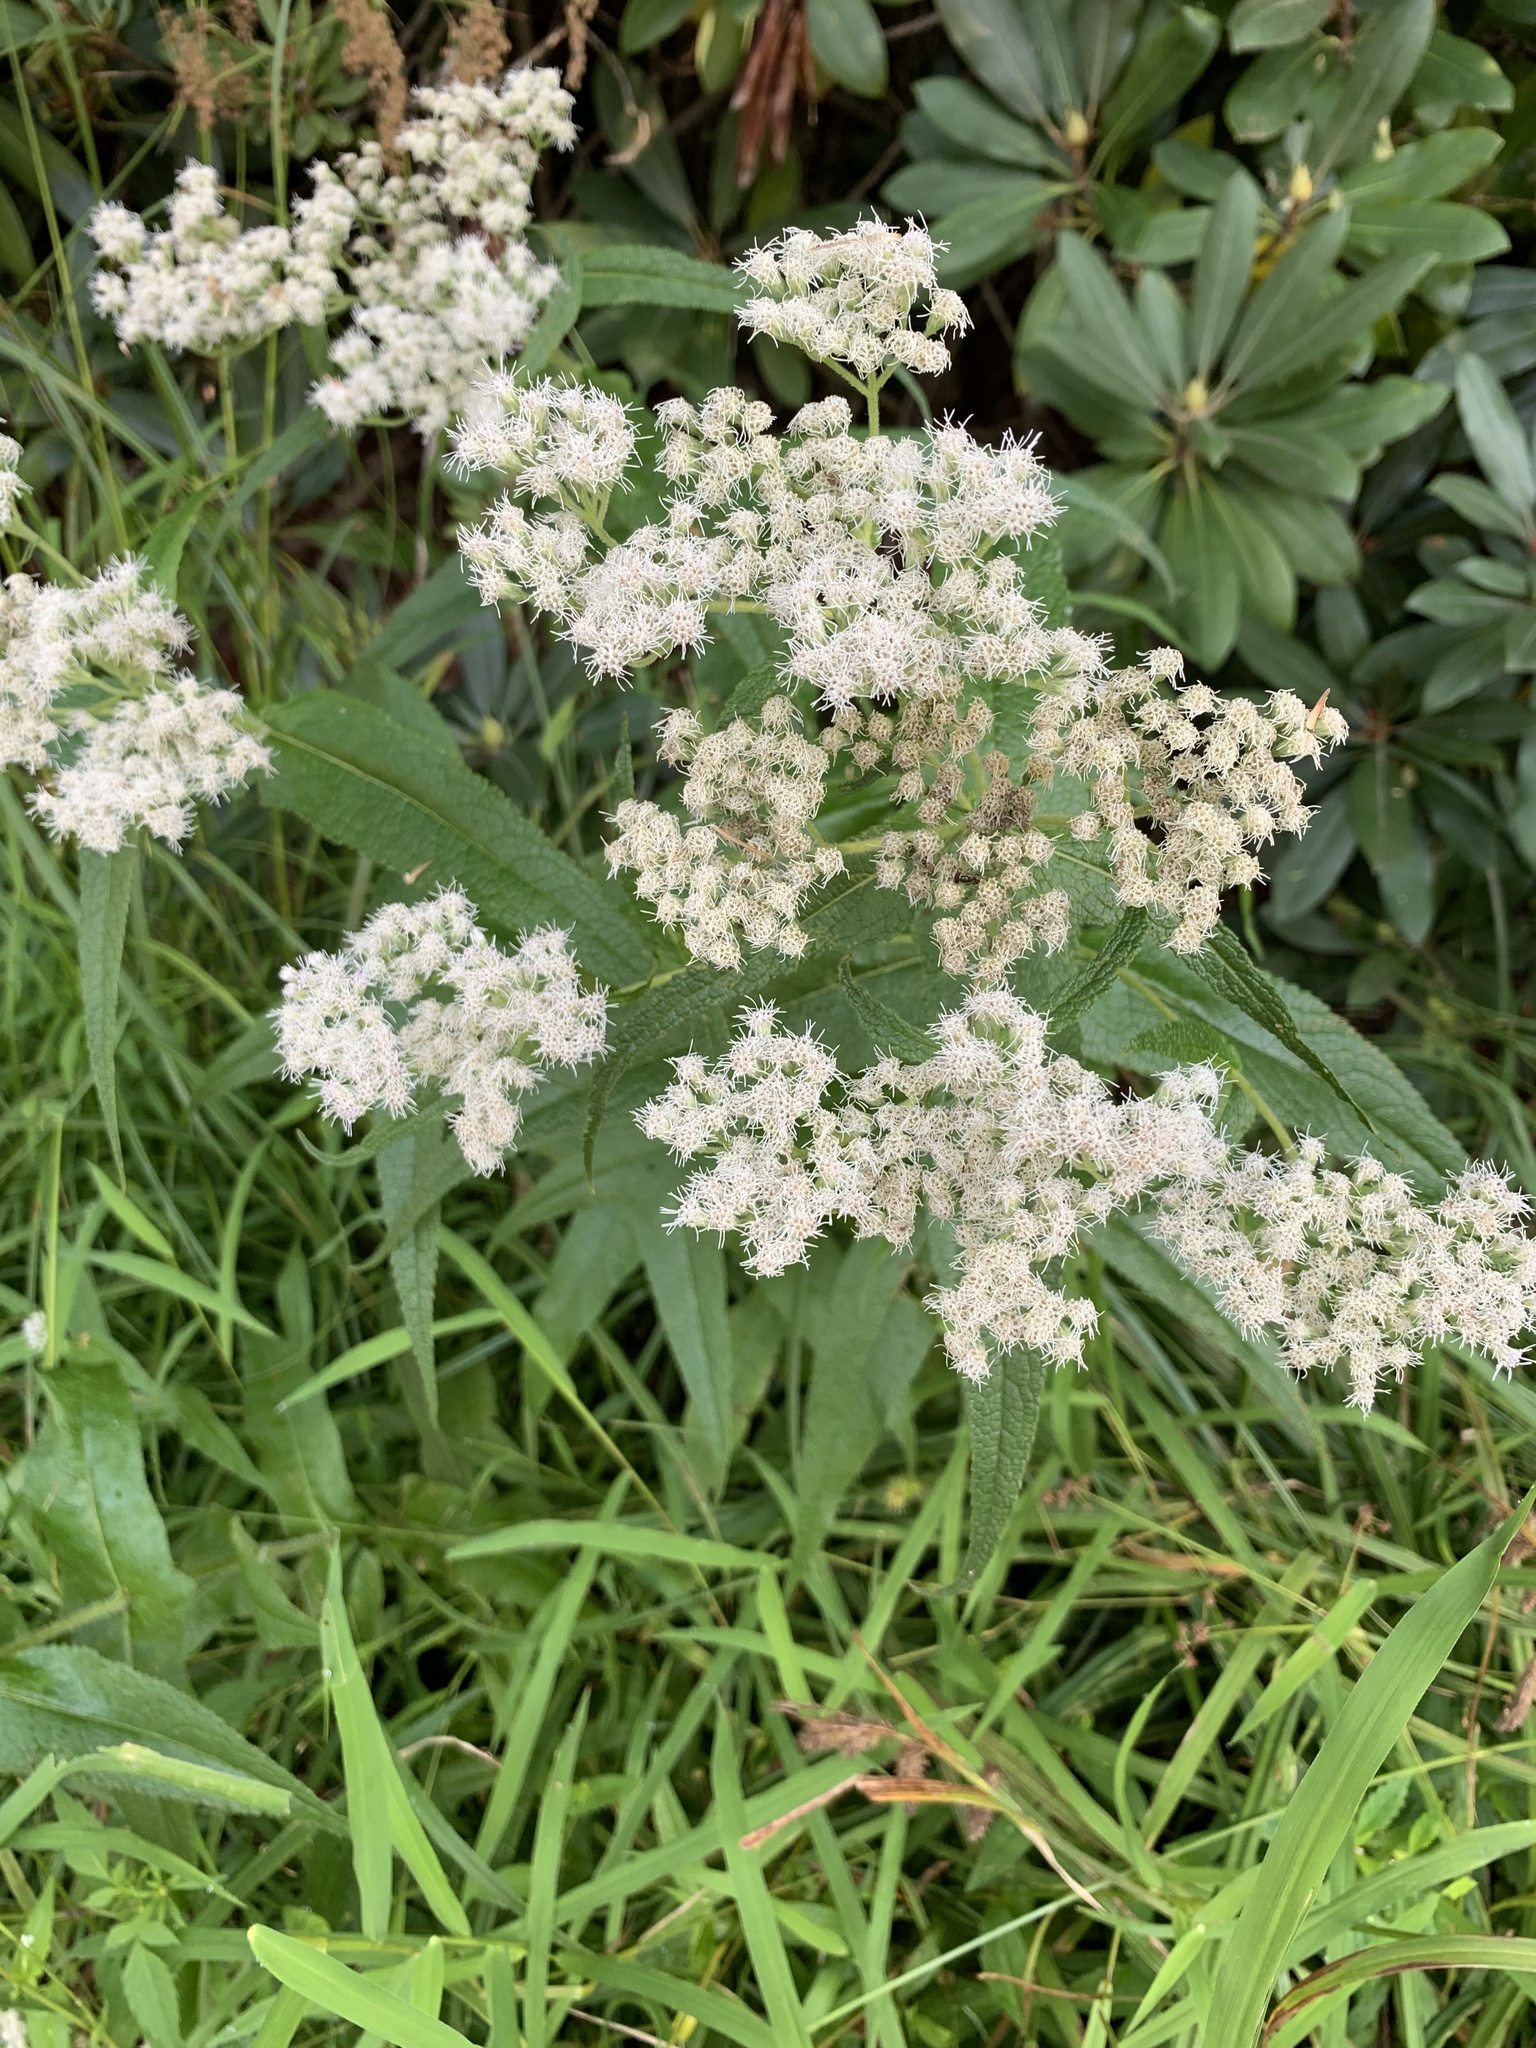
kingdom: Plantae
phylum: Tracheophyta
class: Magnoliopsida
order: Asterales
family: Asteraceae
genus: Eupatorium
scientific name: Eupatorium perfoliatum
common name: Boneset
